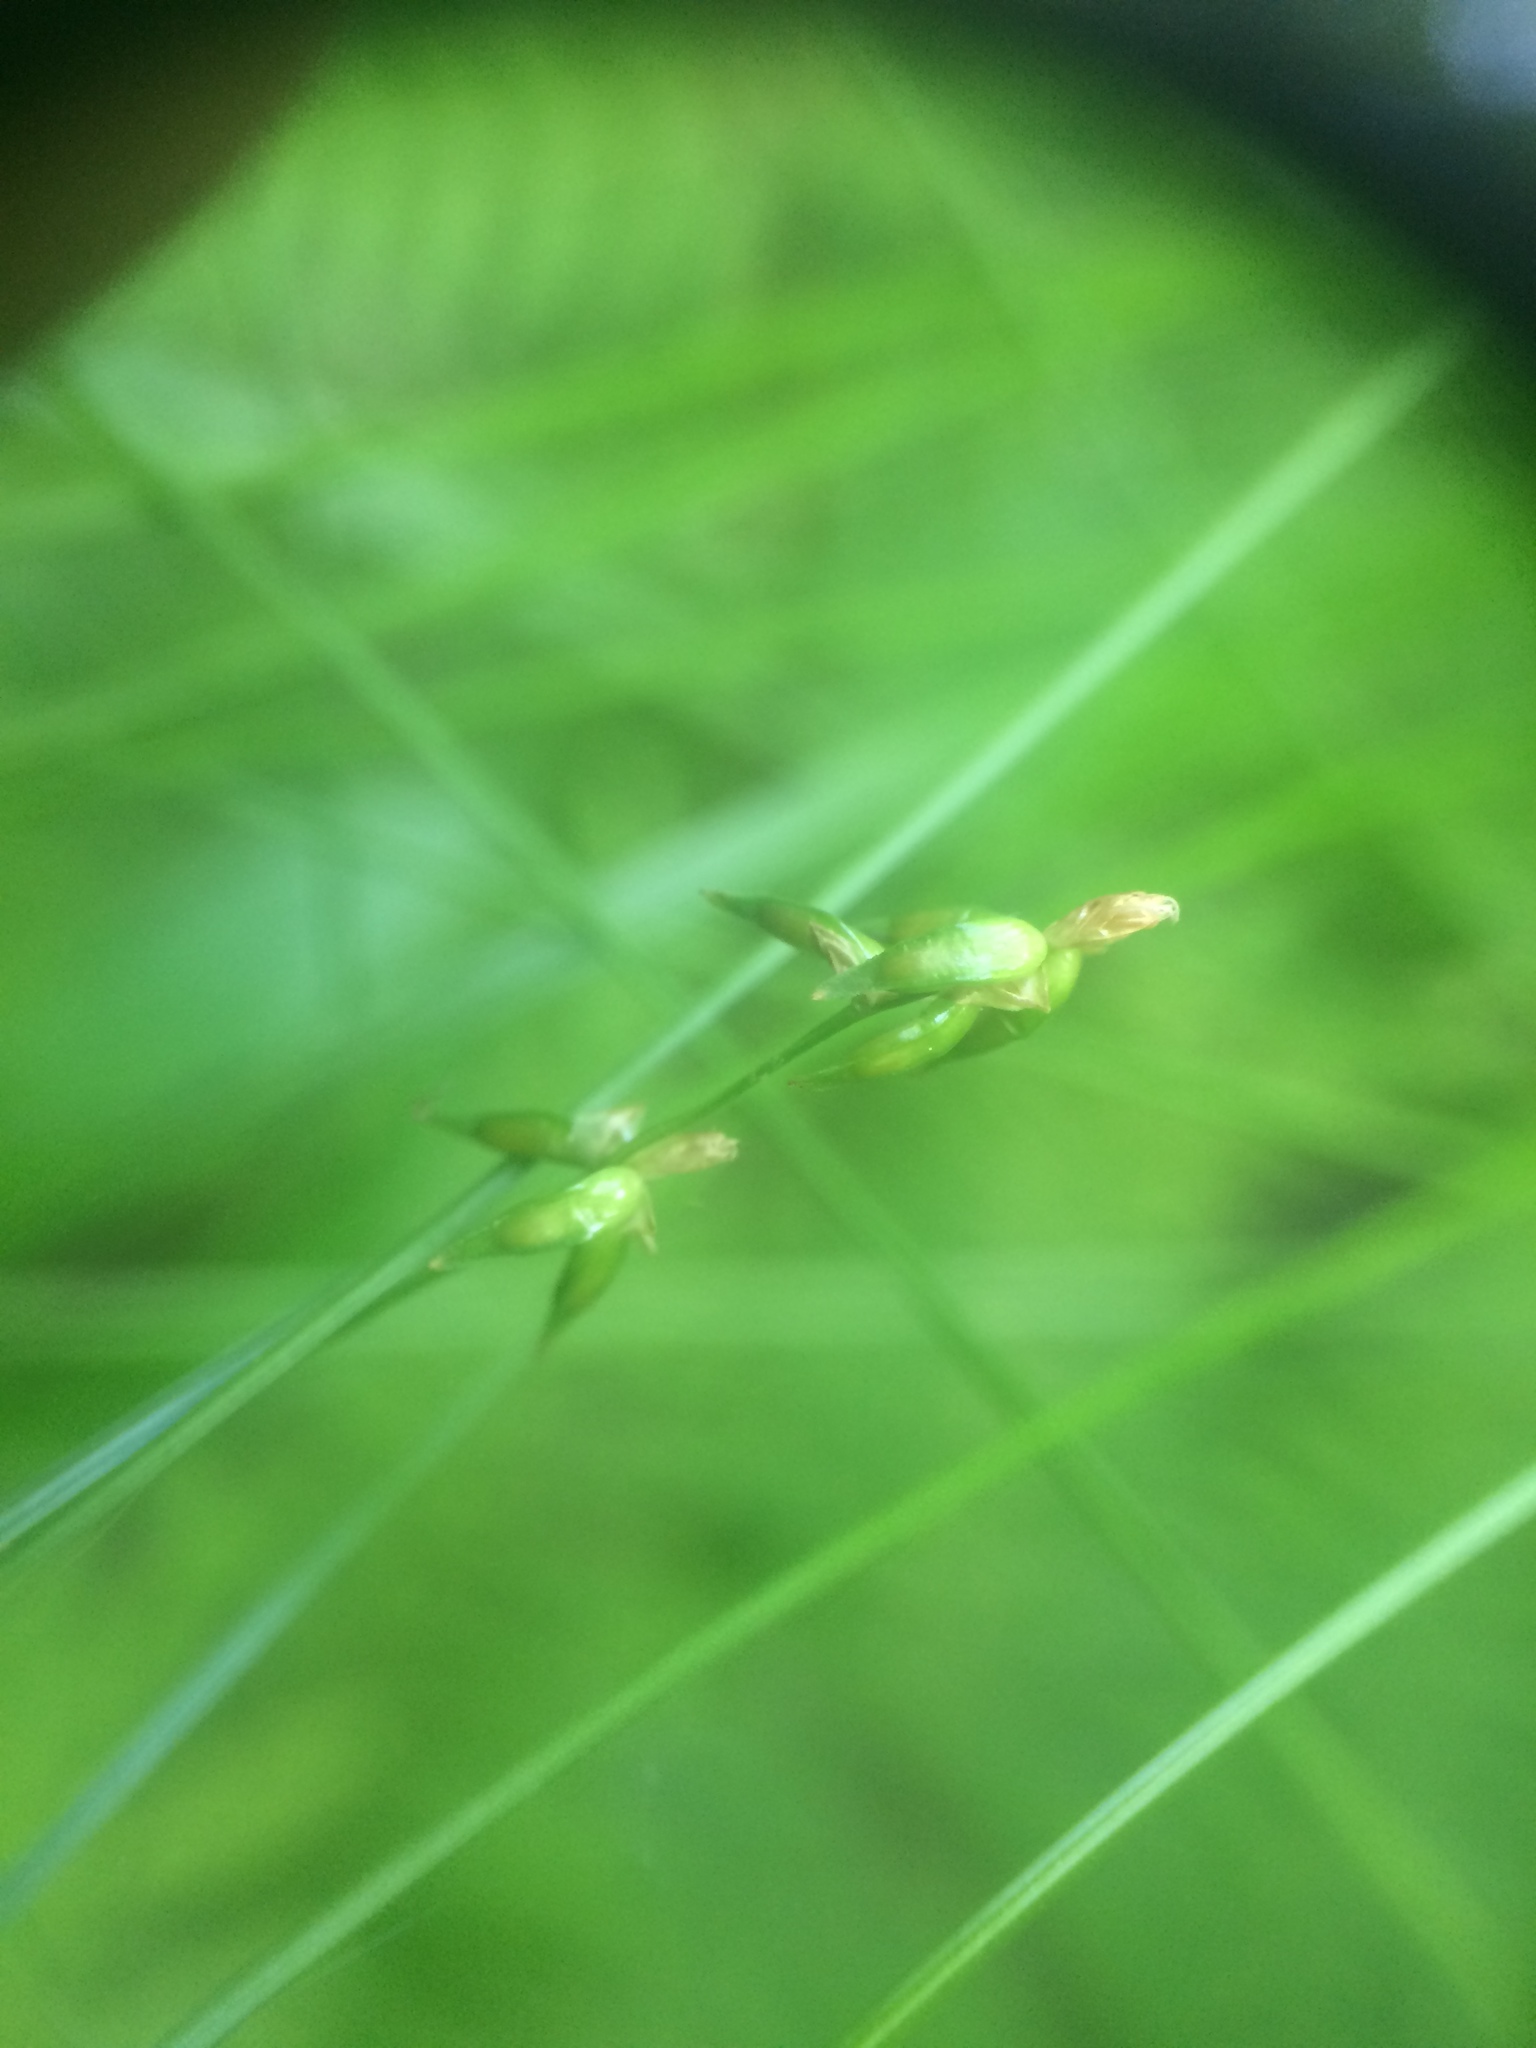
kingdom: Plantae
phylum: Tracheophyta
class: Liliopsida
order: Poales
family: Cyperaceae
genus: Carex
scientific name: Carex radiata
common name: Eastern star sedge
